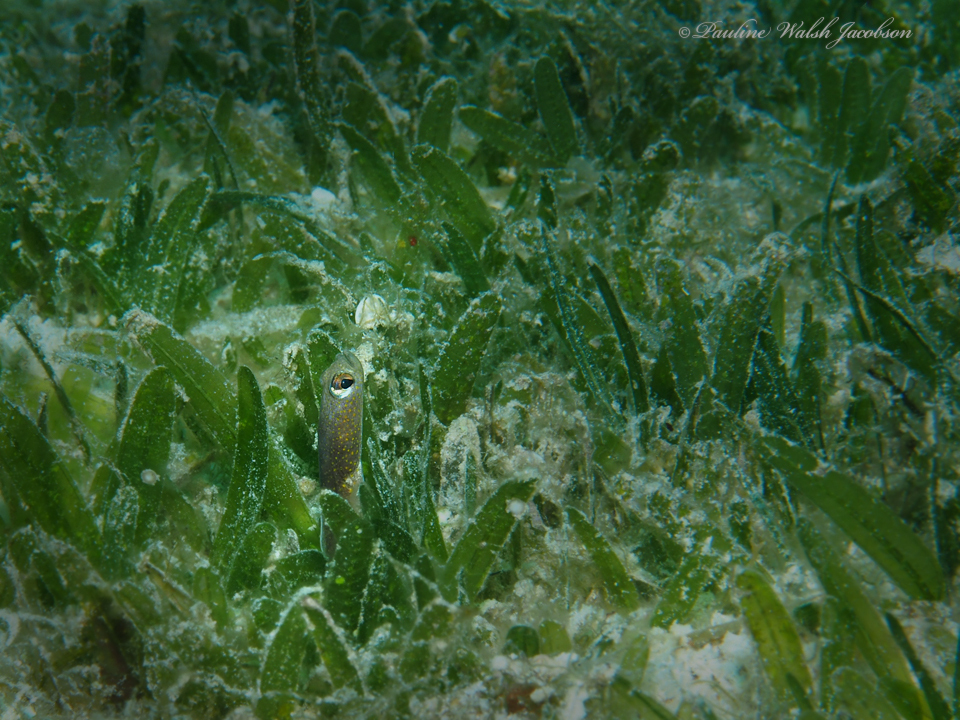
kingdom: Animalia
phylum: Chordata
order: Anguilliformes
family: Congridae
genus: Heteroconger
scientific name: Heteroconger longissimus
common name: Garden eel
